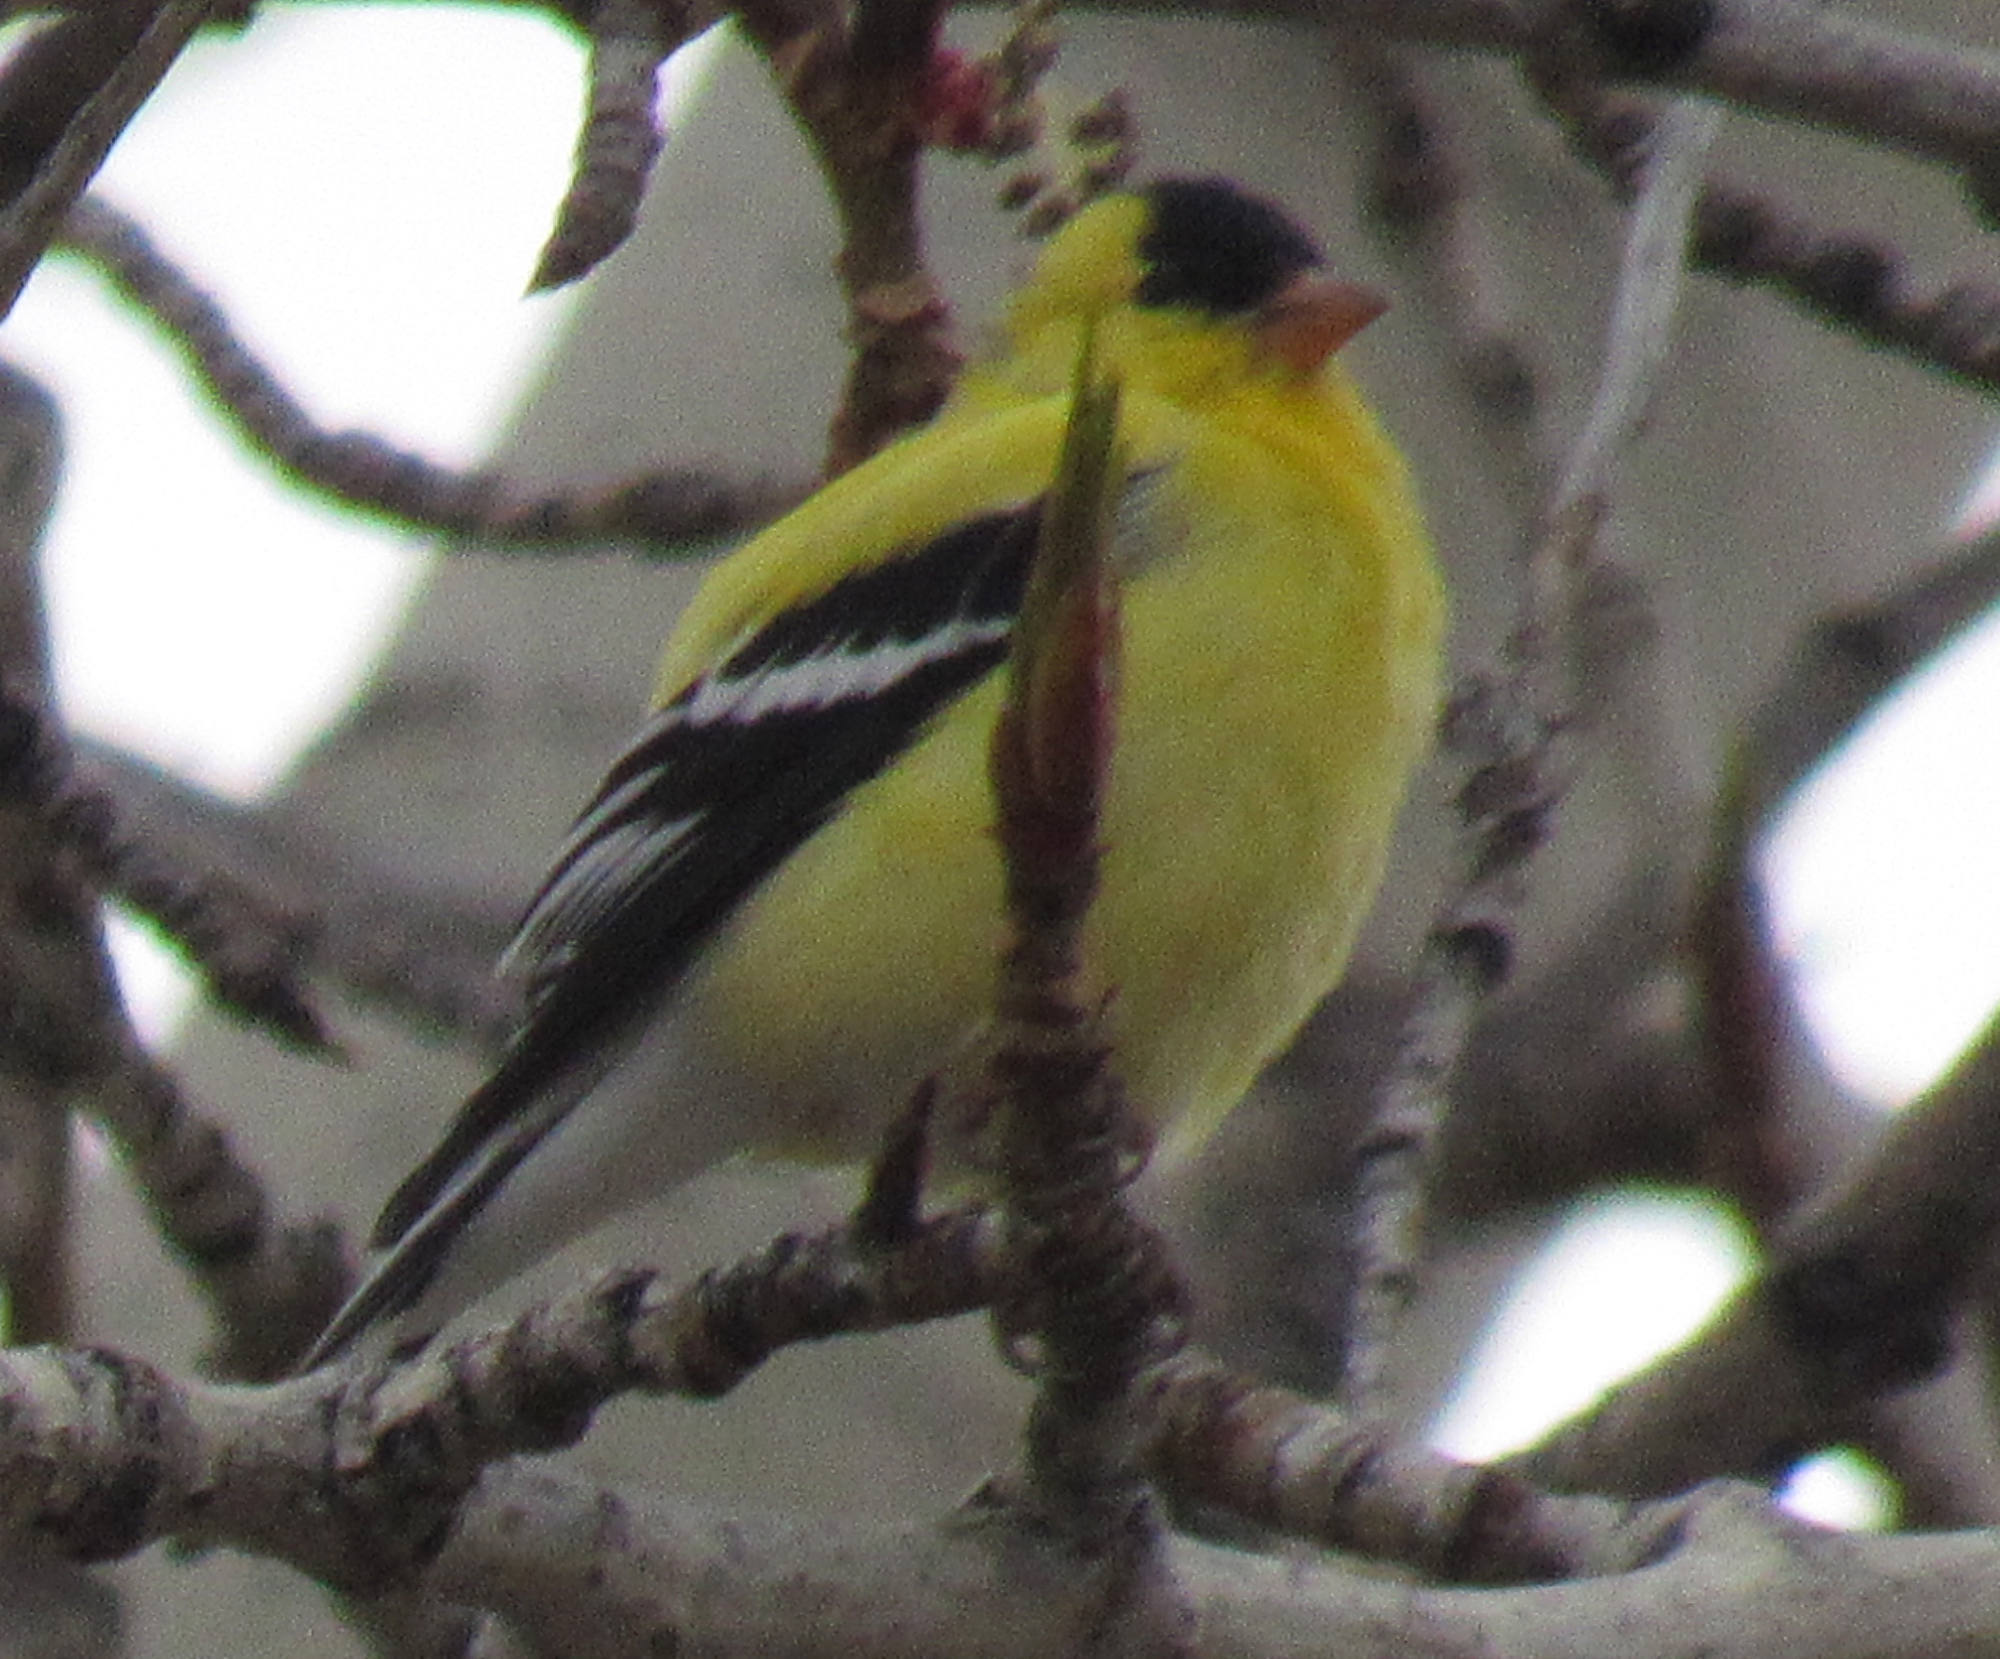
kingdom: Animalia
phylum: Chordata
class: Aves
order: Passeriformes
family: Fringillidae
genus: Spinus
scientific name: Spinus tristis
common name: American goldfinch
